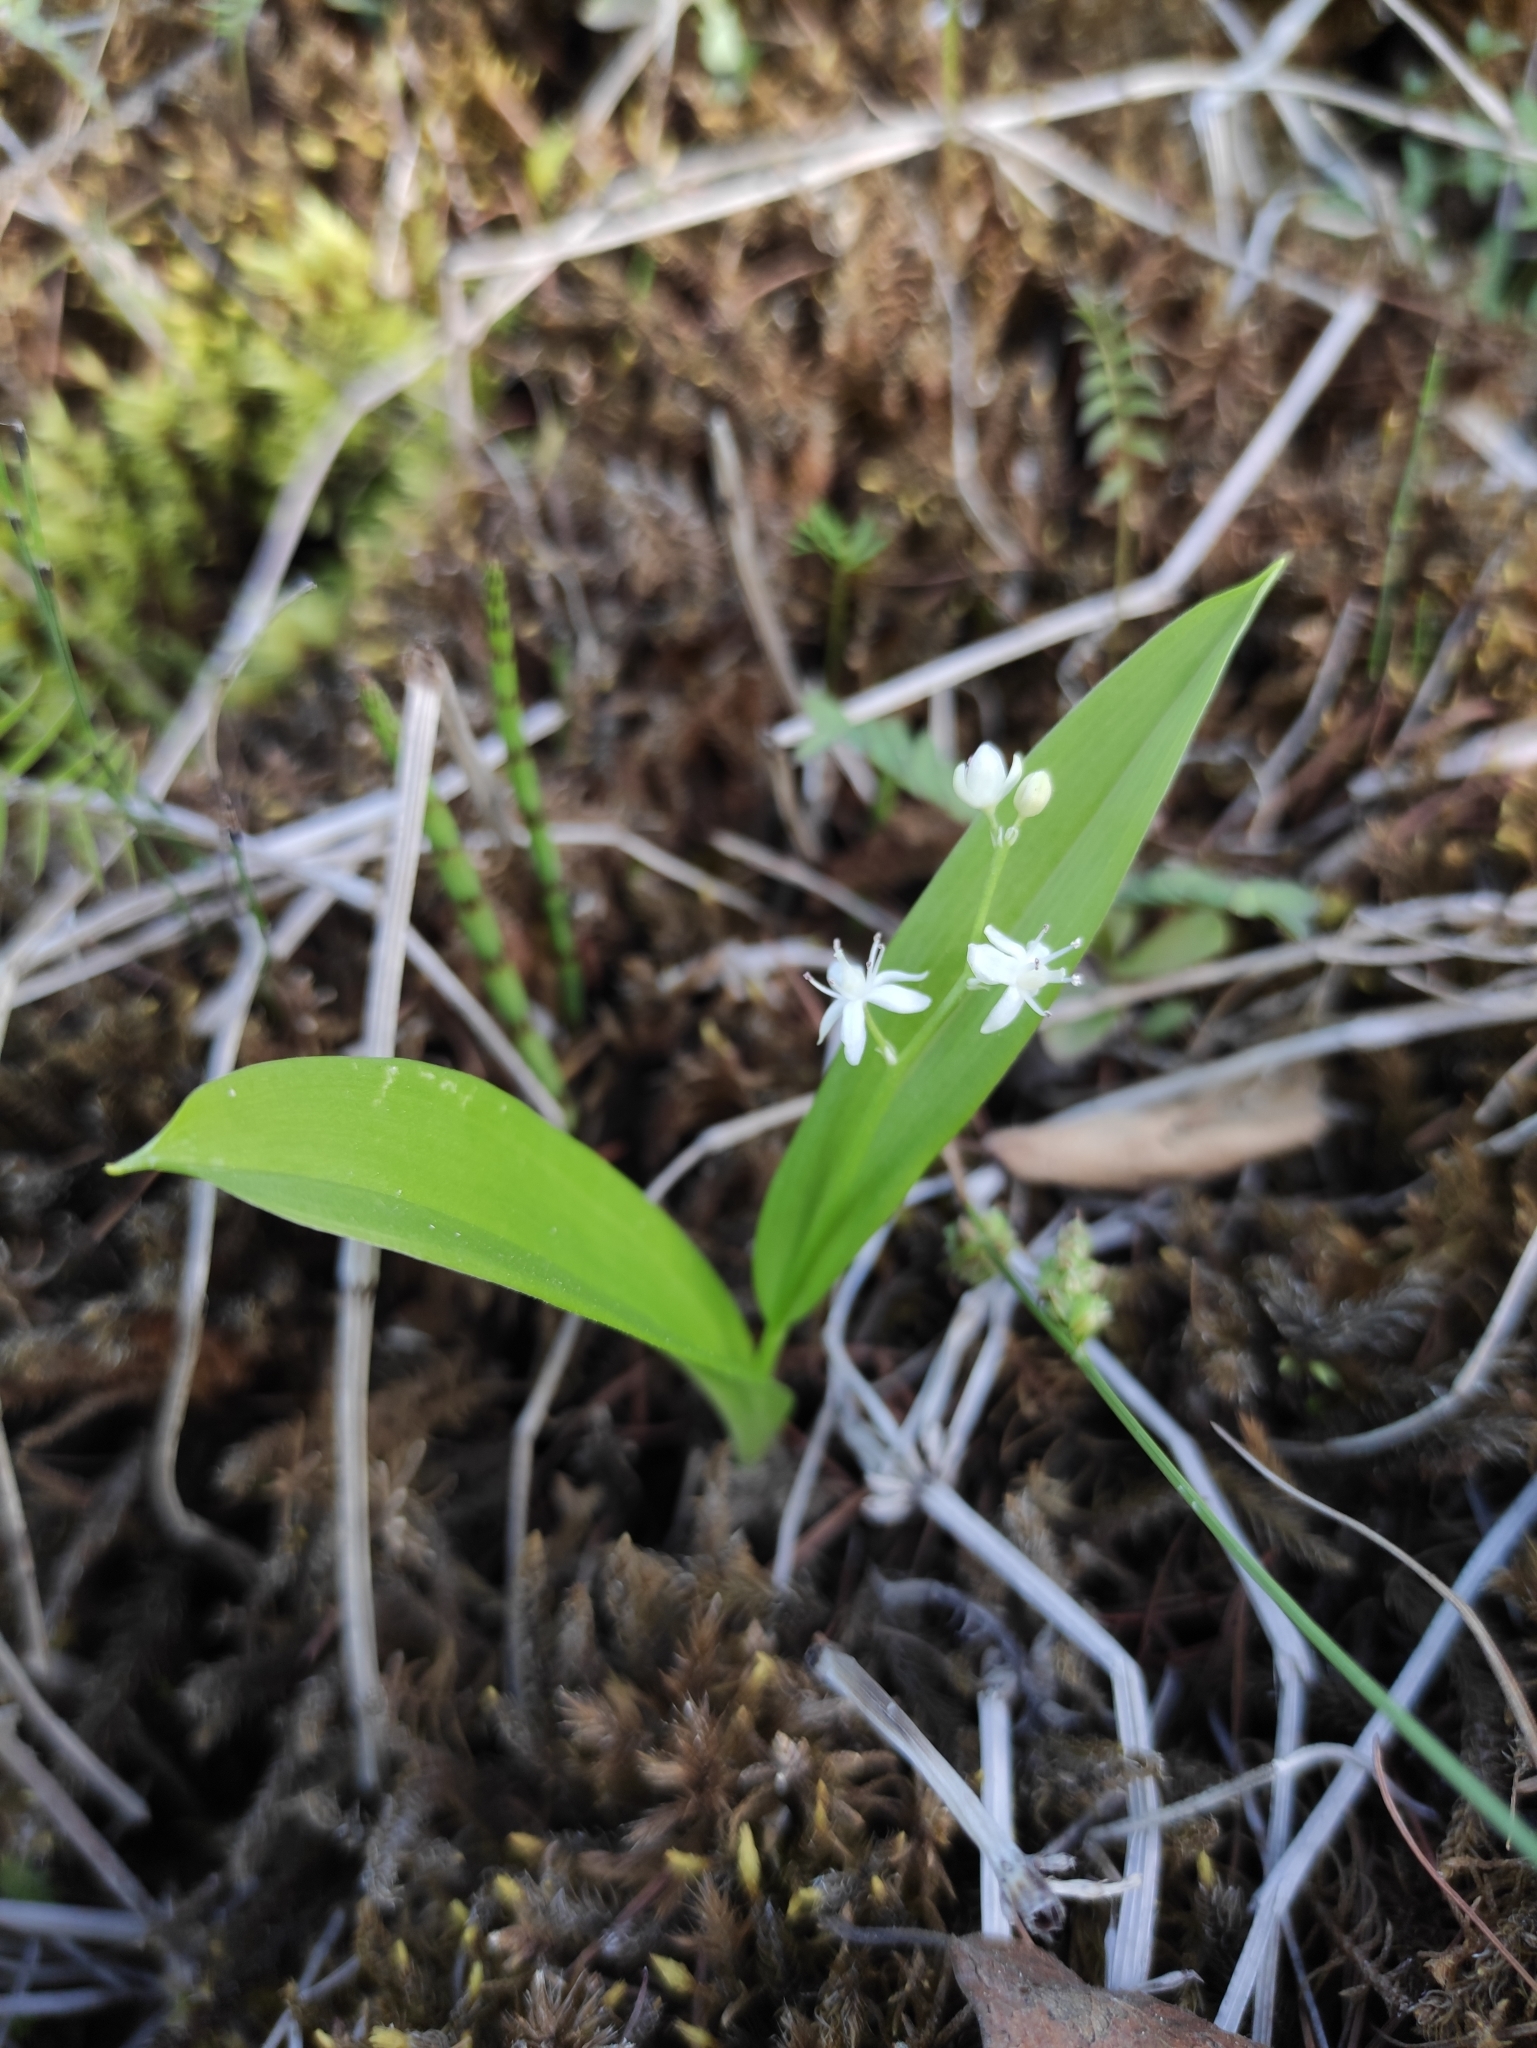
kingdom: Plantae
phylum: Tracheophyta
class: Liliopsida
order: Asparagales
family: Asparagaceae
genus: Maianthemum
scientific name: Maianthemum trifolium
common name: Swamp false solomon's seal
